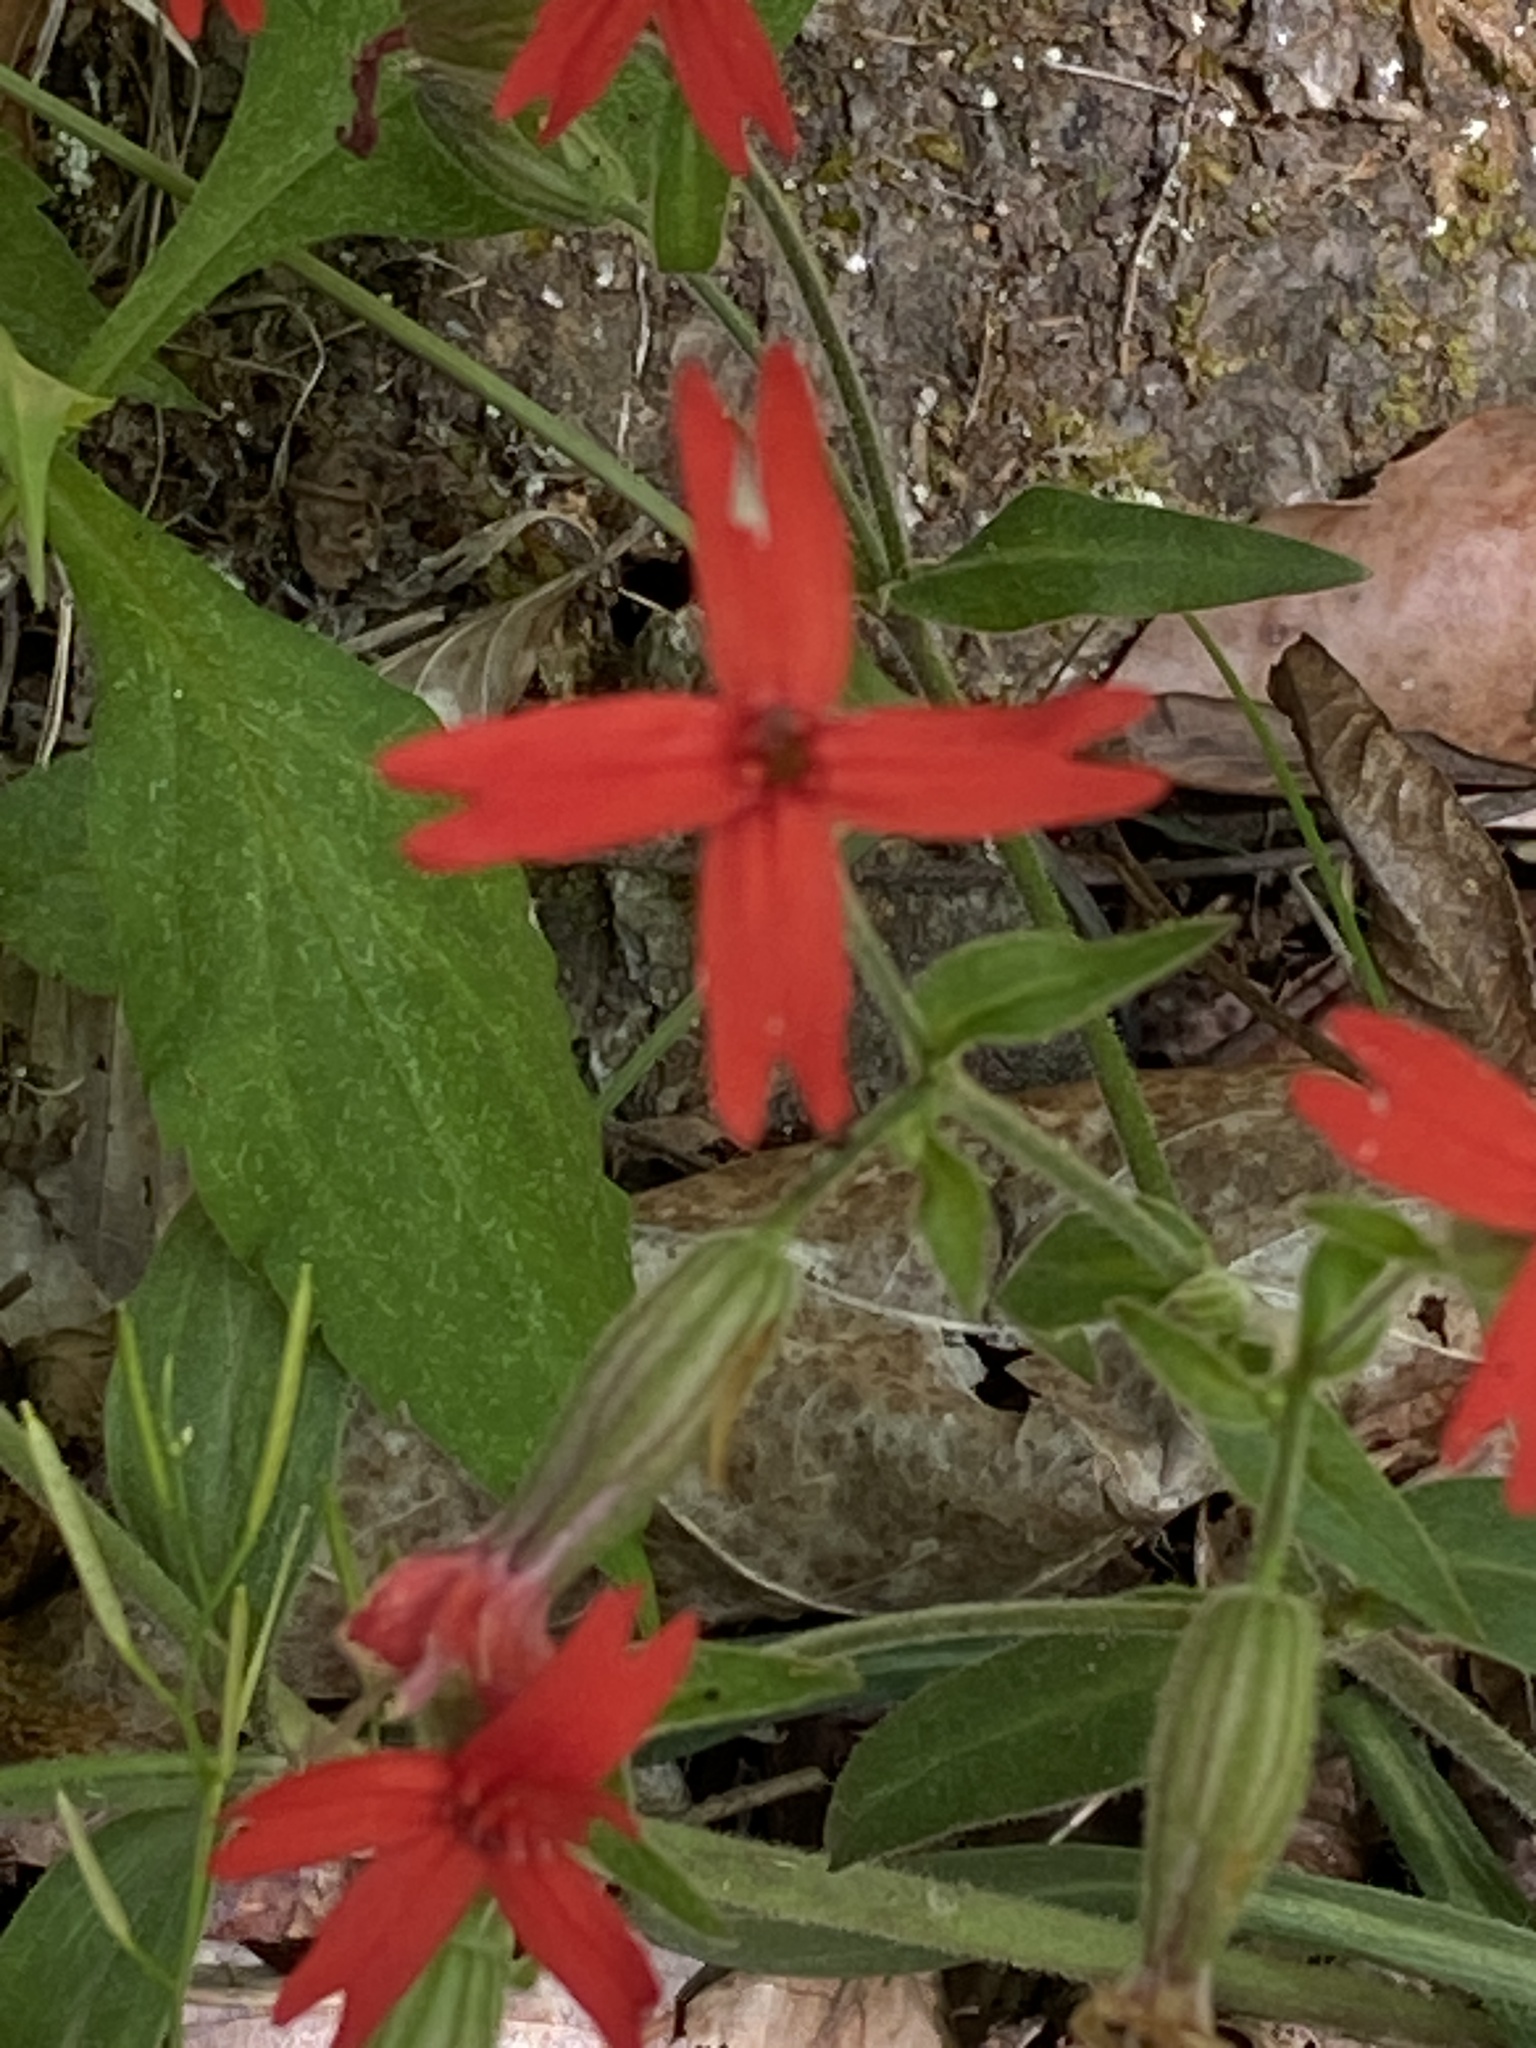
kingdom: Plantae
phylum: Tracheophyta
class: Magnoliopsida
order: Caryophyllales
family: Caryophyllaceae
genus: Silene
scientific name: Silene virginica
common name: Fire-pink
